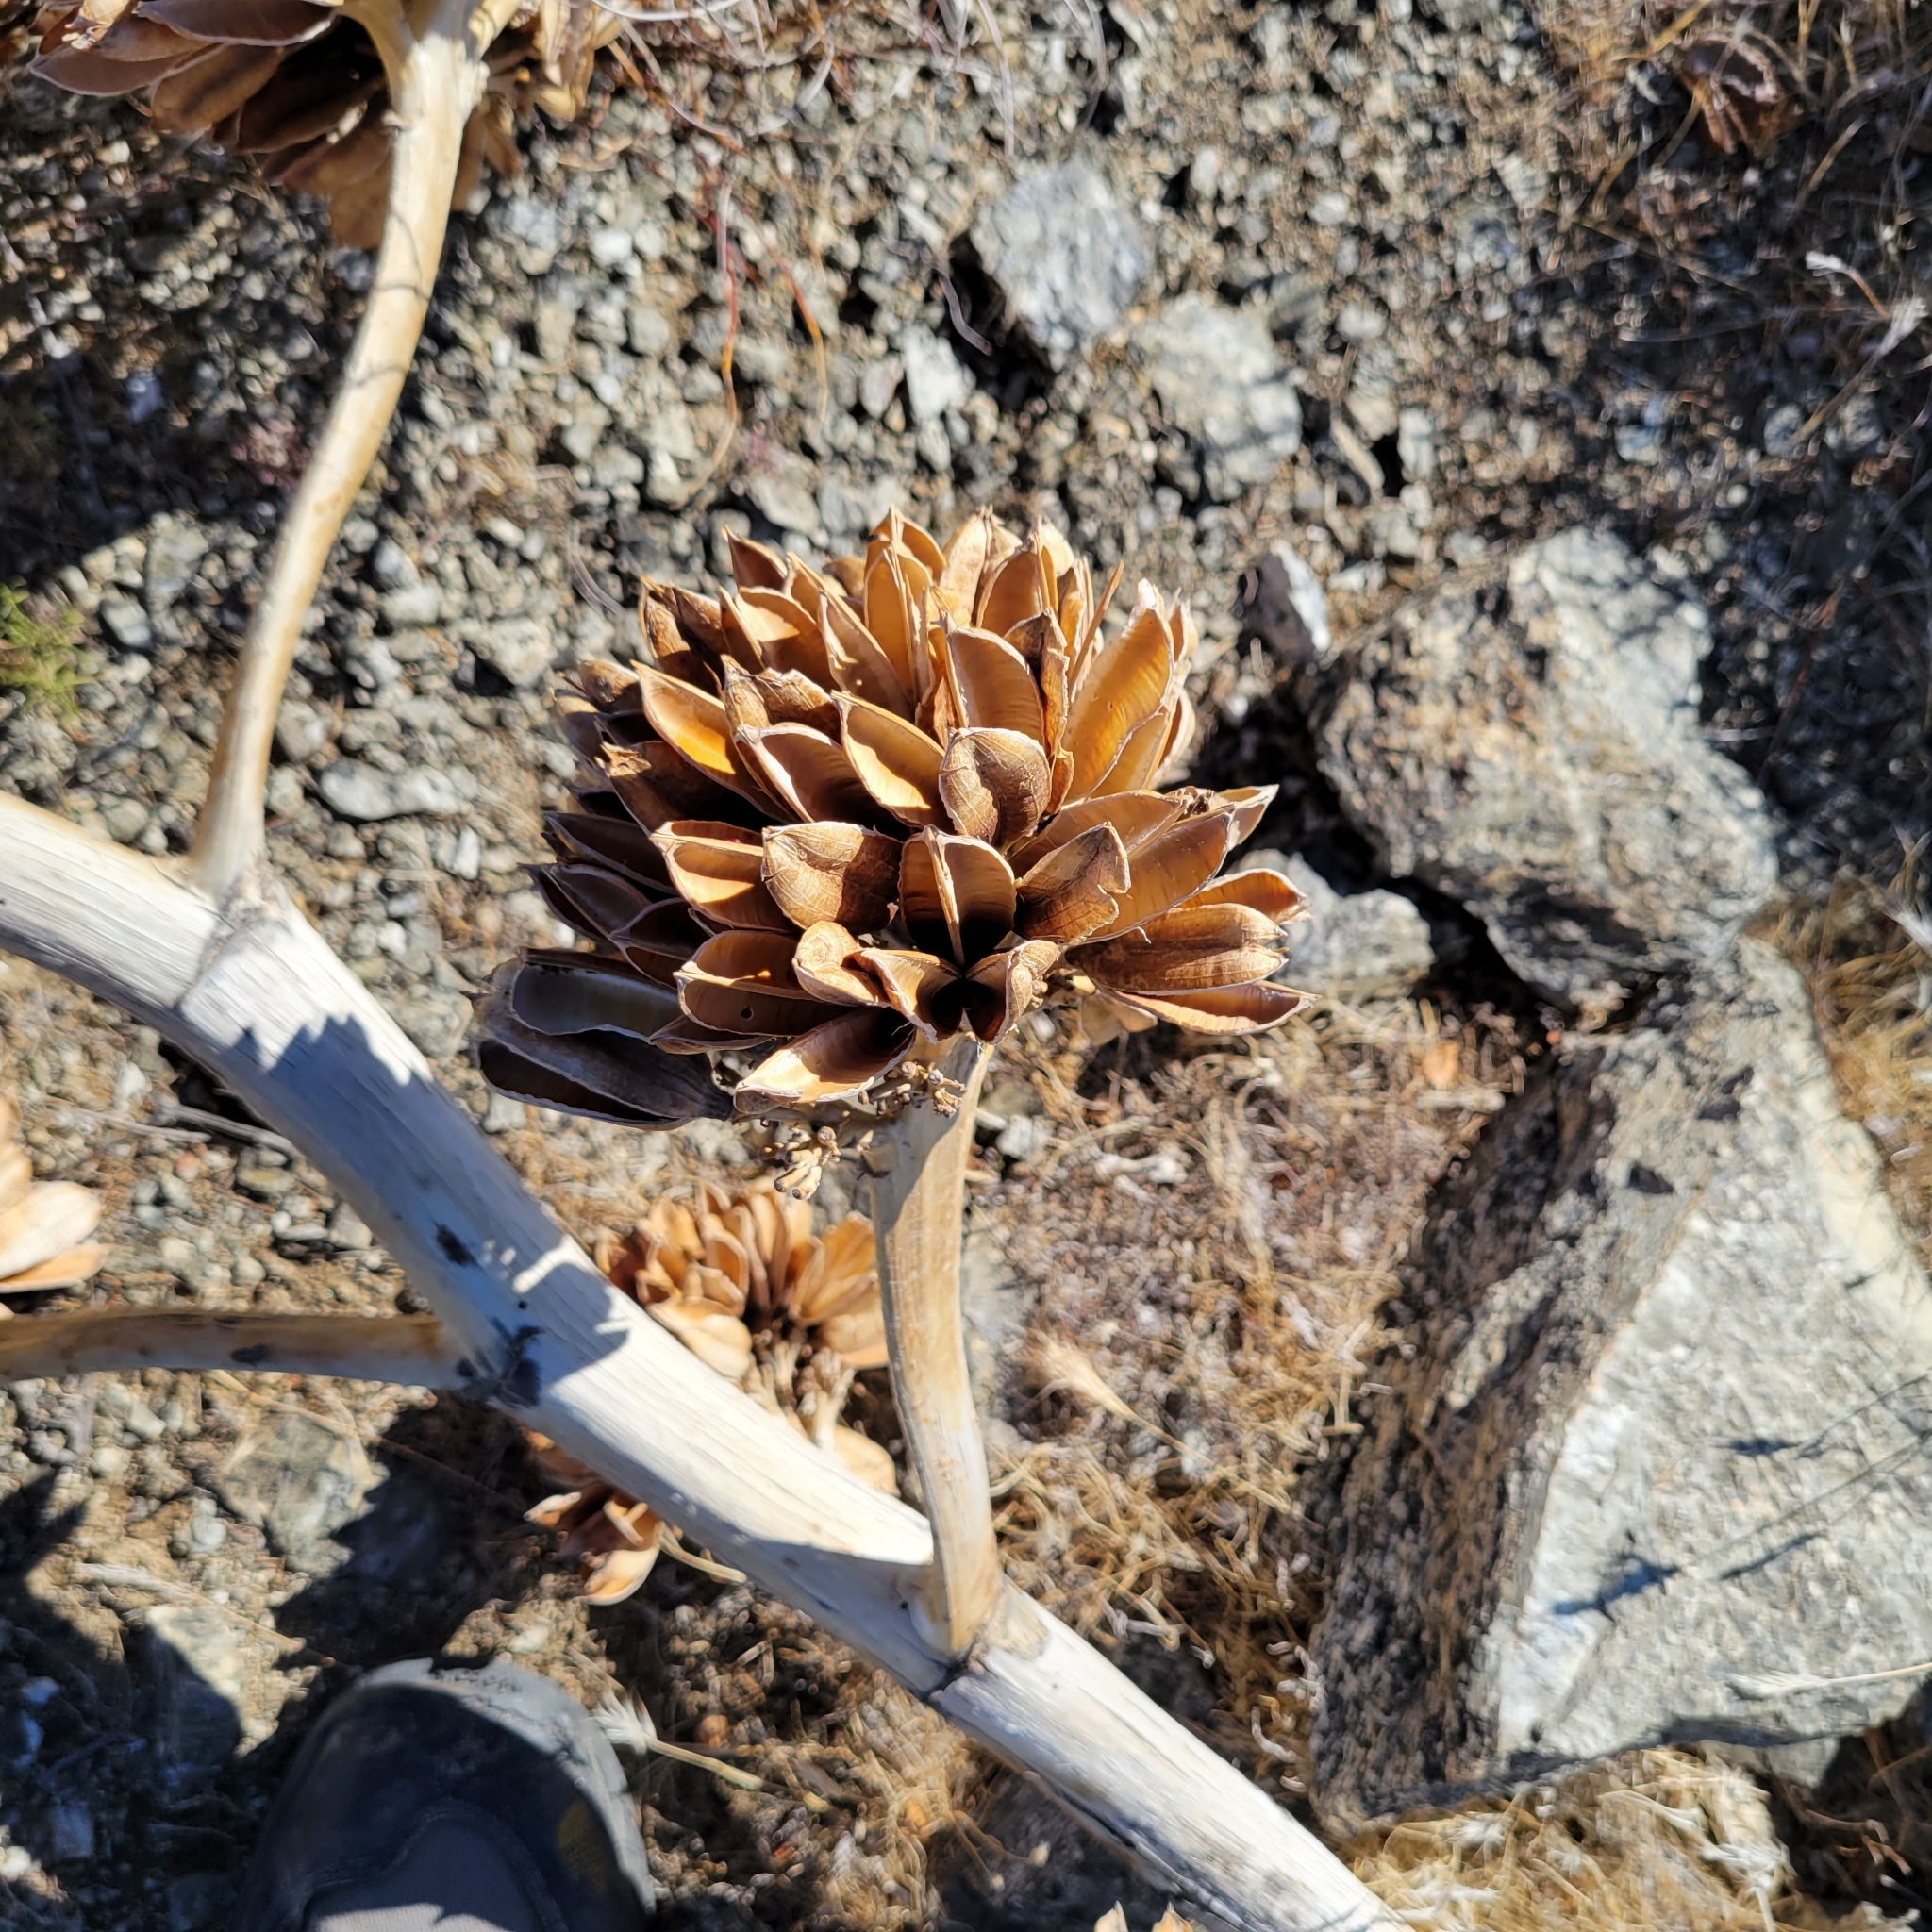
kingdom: Plantae
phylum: Tracheophyta
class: Liliopsida
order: Asparagales
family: Asparagaceae
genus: Agave
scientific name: Agave deserti
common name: Desert agave
